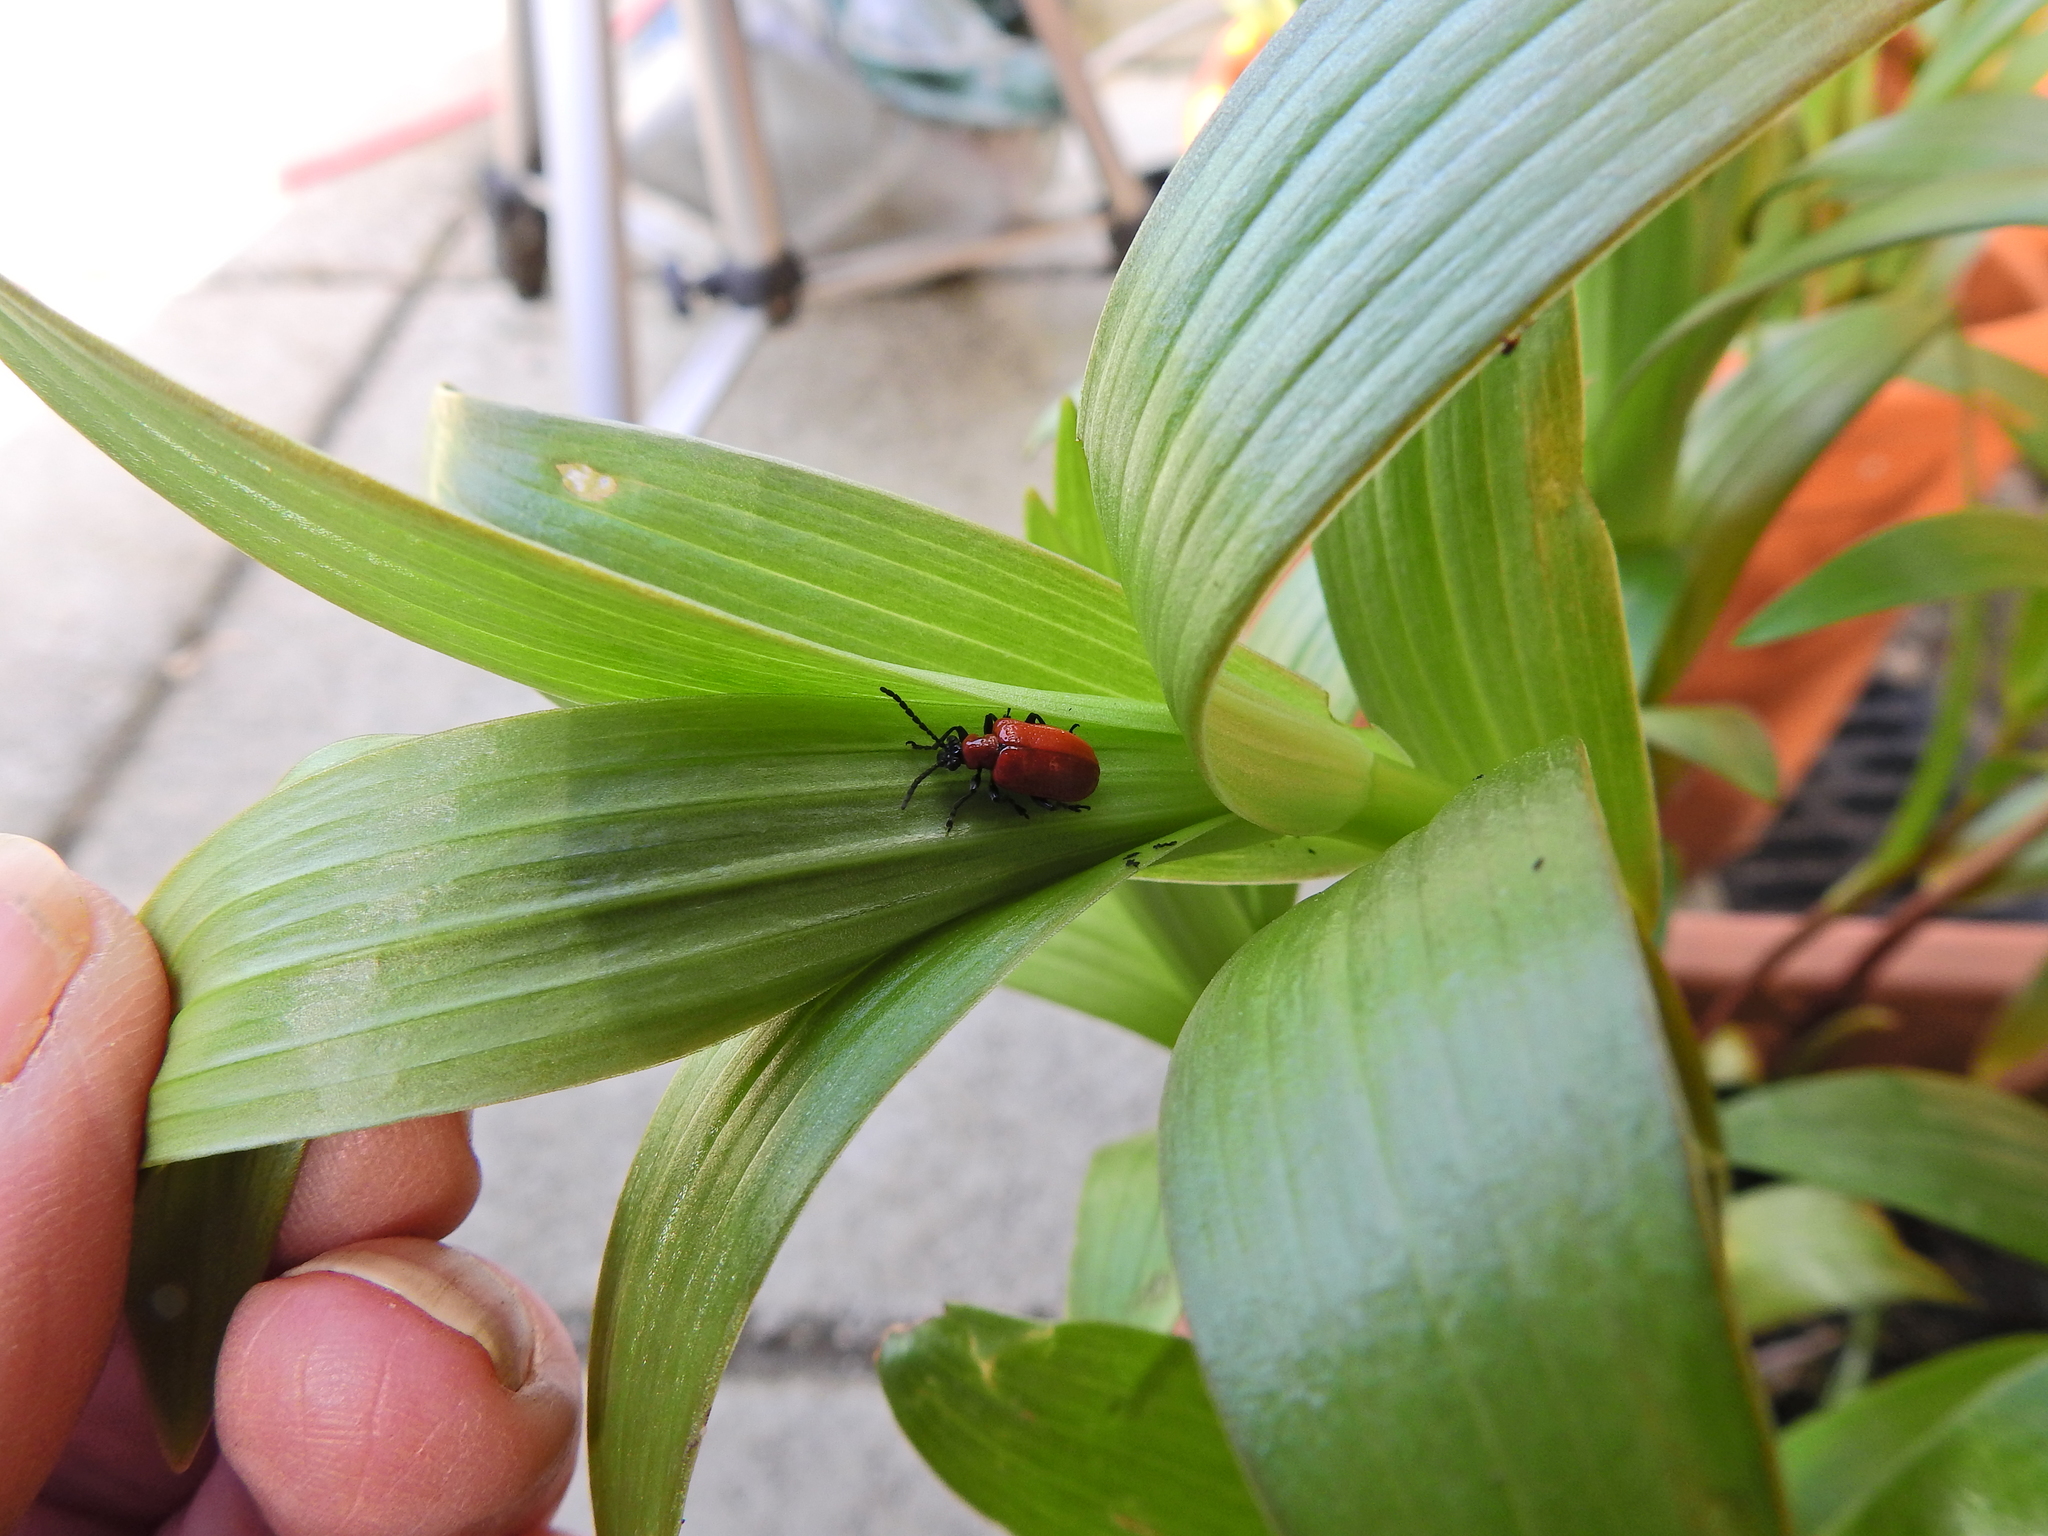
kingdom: Animalia
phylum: Arthropoda
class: Insecta
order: Coleoptera
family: Chrysomelidae
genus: Lilioceris
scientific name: Lilioceris lilii
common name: Lily beetle
